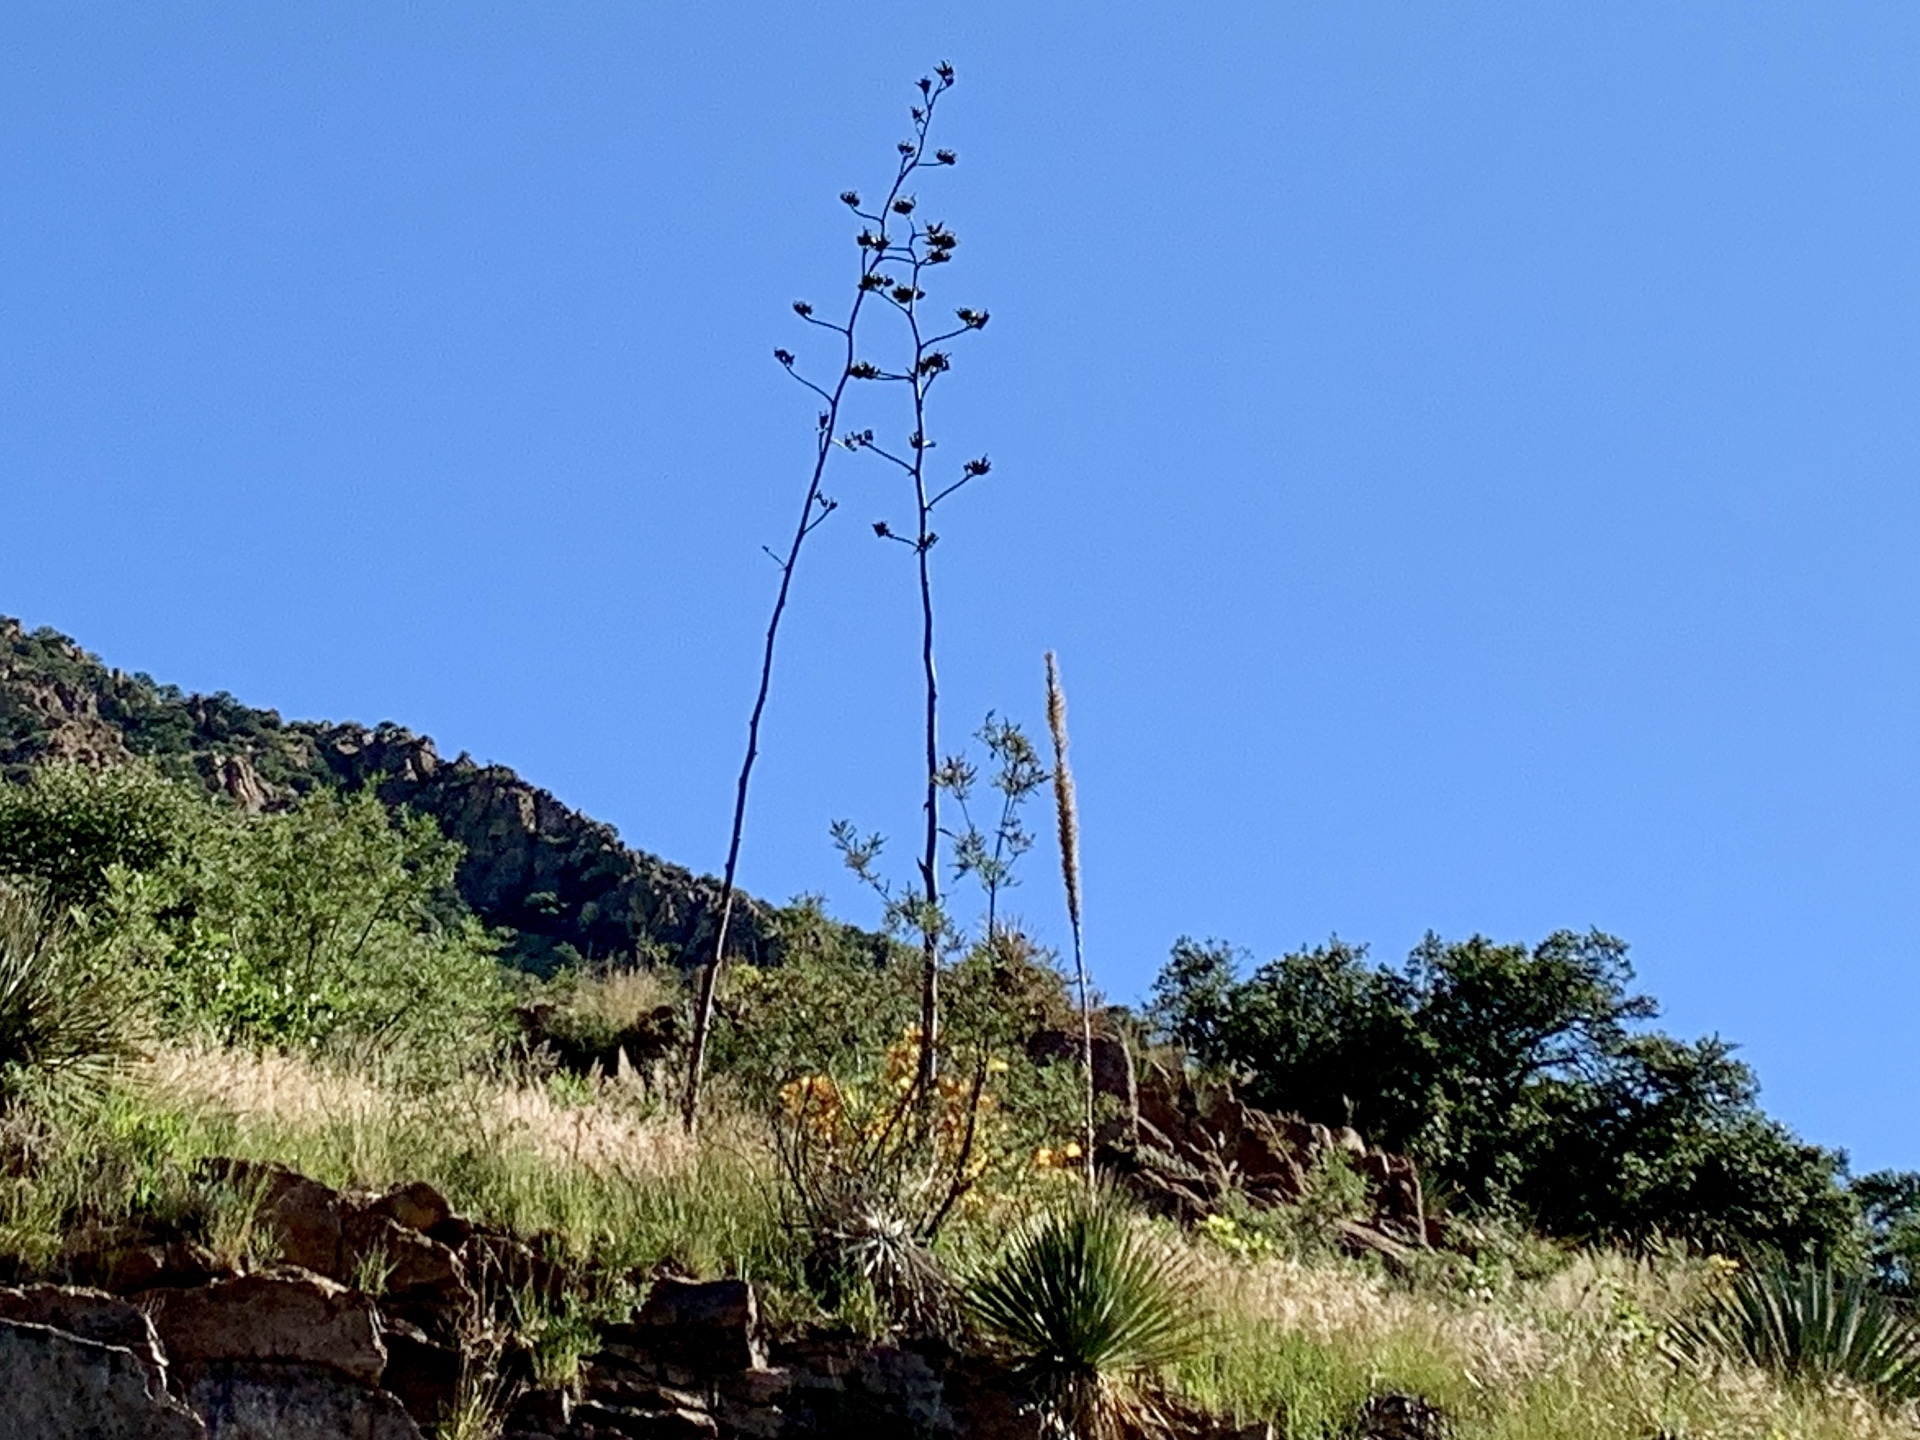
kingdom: Plantae
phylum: Tracheophyta
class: Liliopsida
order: Asparagales
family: Asparagaceae
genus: Agave
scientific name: Agave palmeri
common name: Palmer agave
